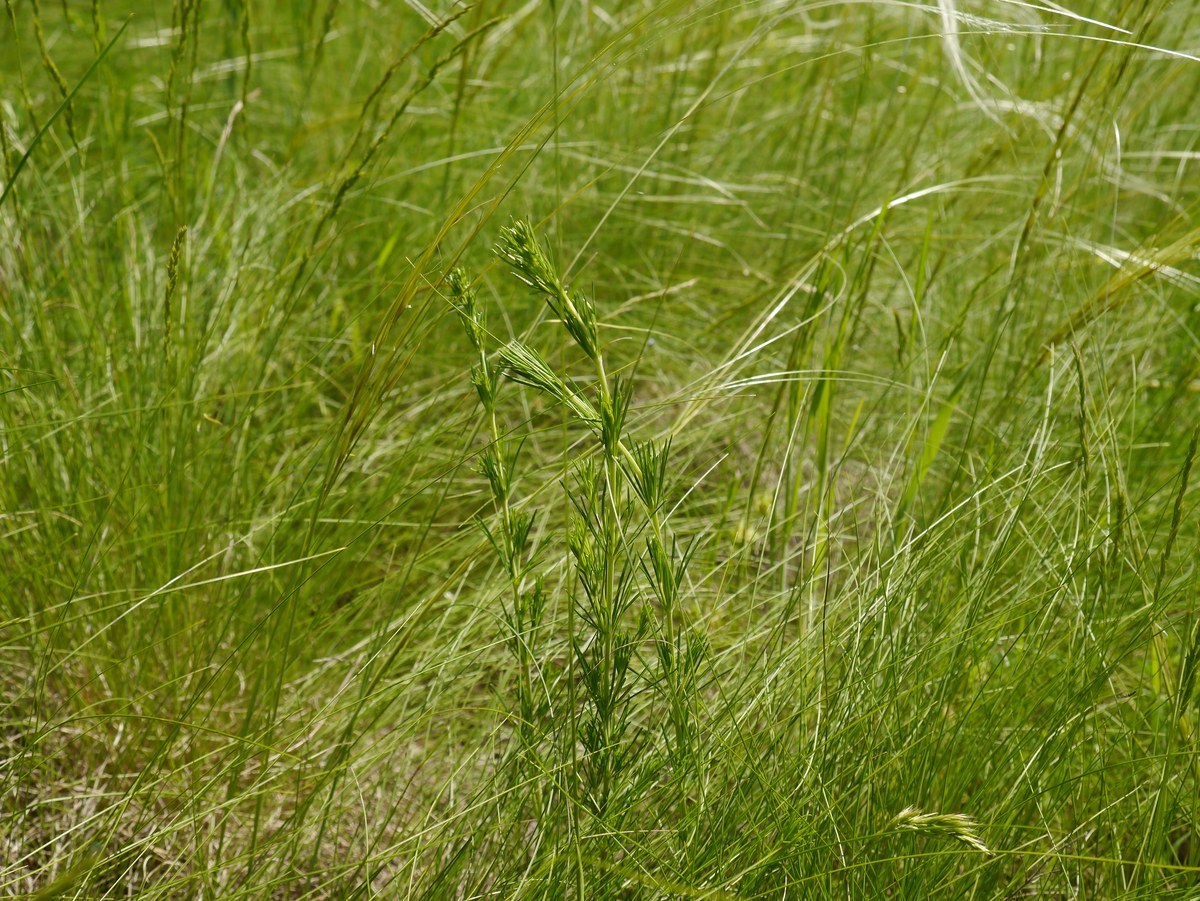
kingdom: Plantae
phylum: Tracheophyta
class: Magnoliopsida
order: Gentianales
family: Rubiaceae
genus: Galium
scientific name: Galium verum
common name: Lady's bedstraw
